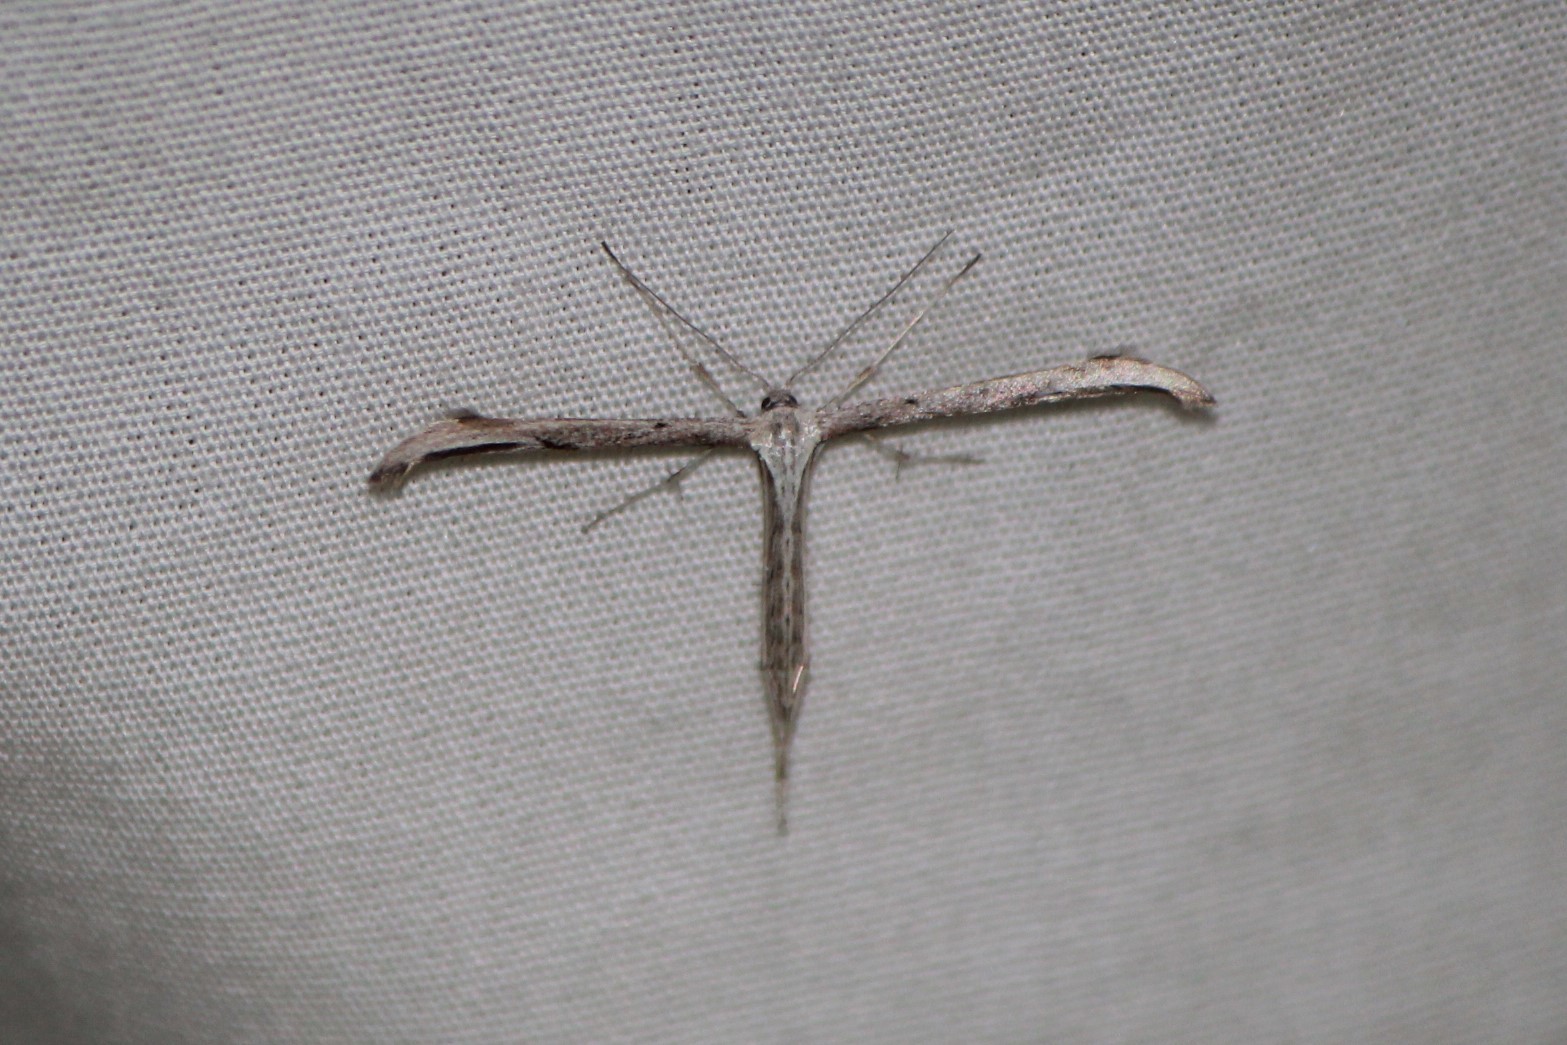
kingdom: Animalia
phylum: Arthropoda
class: Insecta
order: Lepidoptera
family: Pterophoridae
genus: Emmelina
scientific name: Emmelina monodactyla
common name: Common plume
